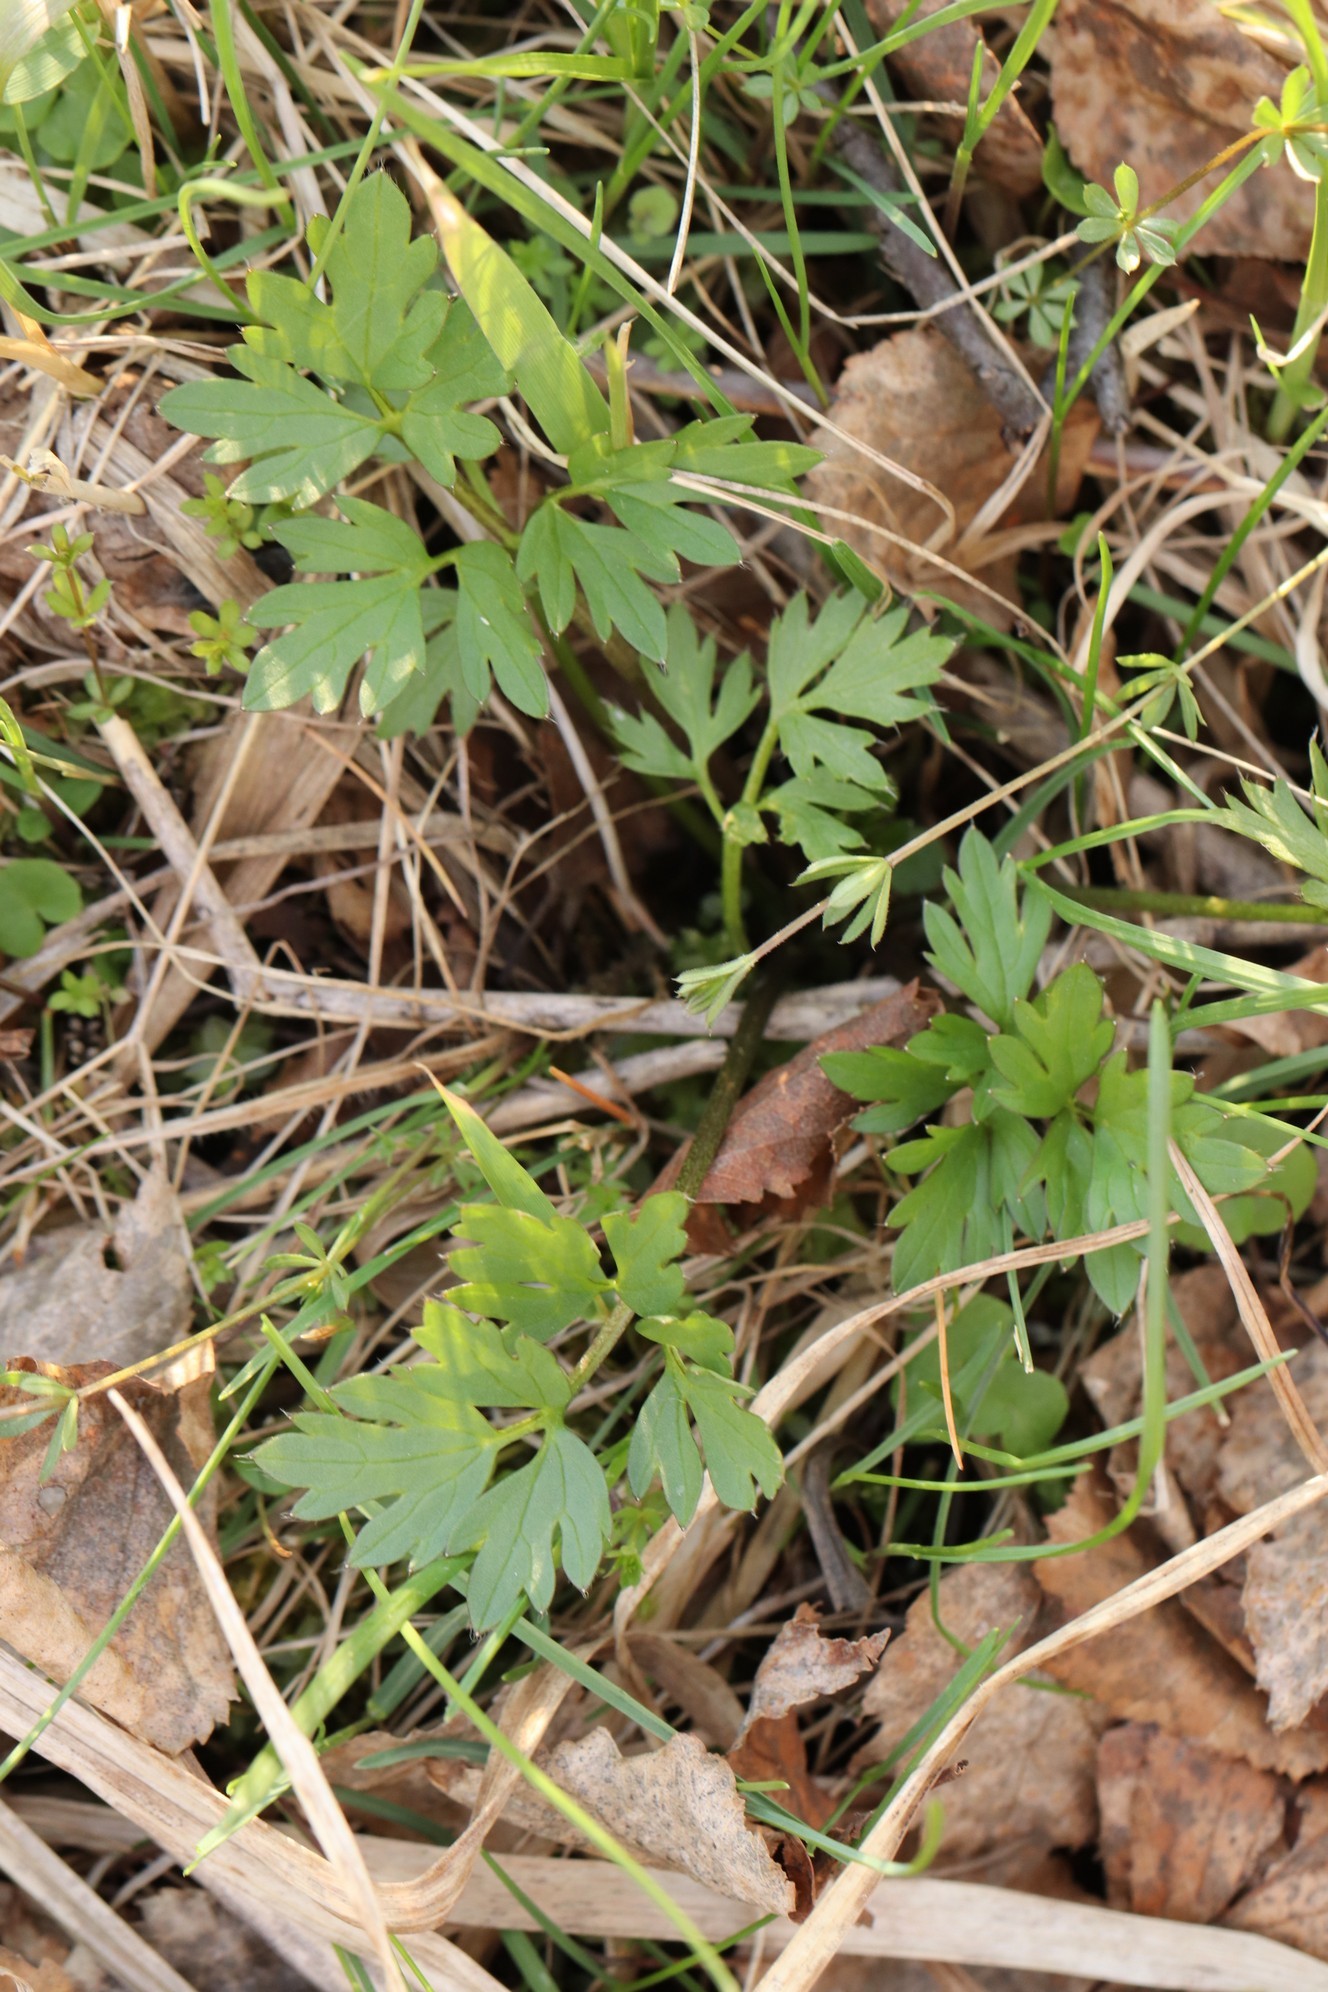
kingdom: Plantae
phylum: Tracheophyta
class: Magnoliopsida
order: Ranunculales
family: Ranunculaceae
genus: Ranunculus
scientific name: Ranunculus repens
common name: Creeping buttercup
